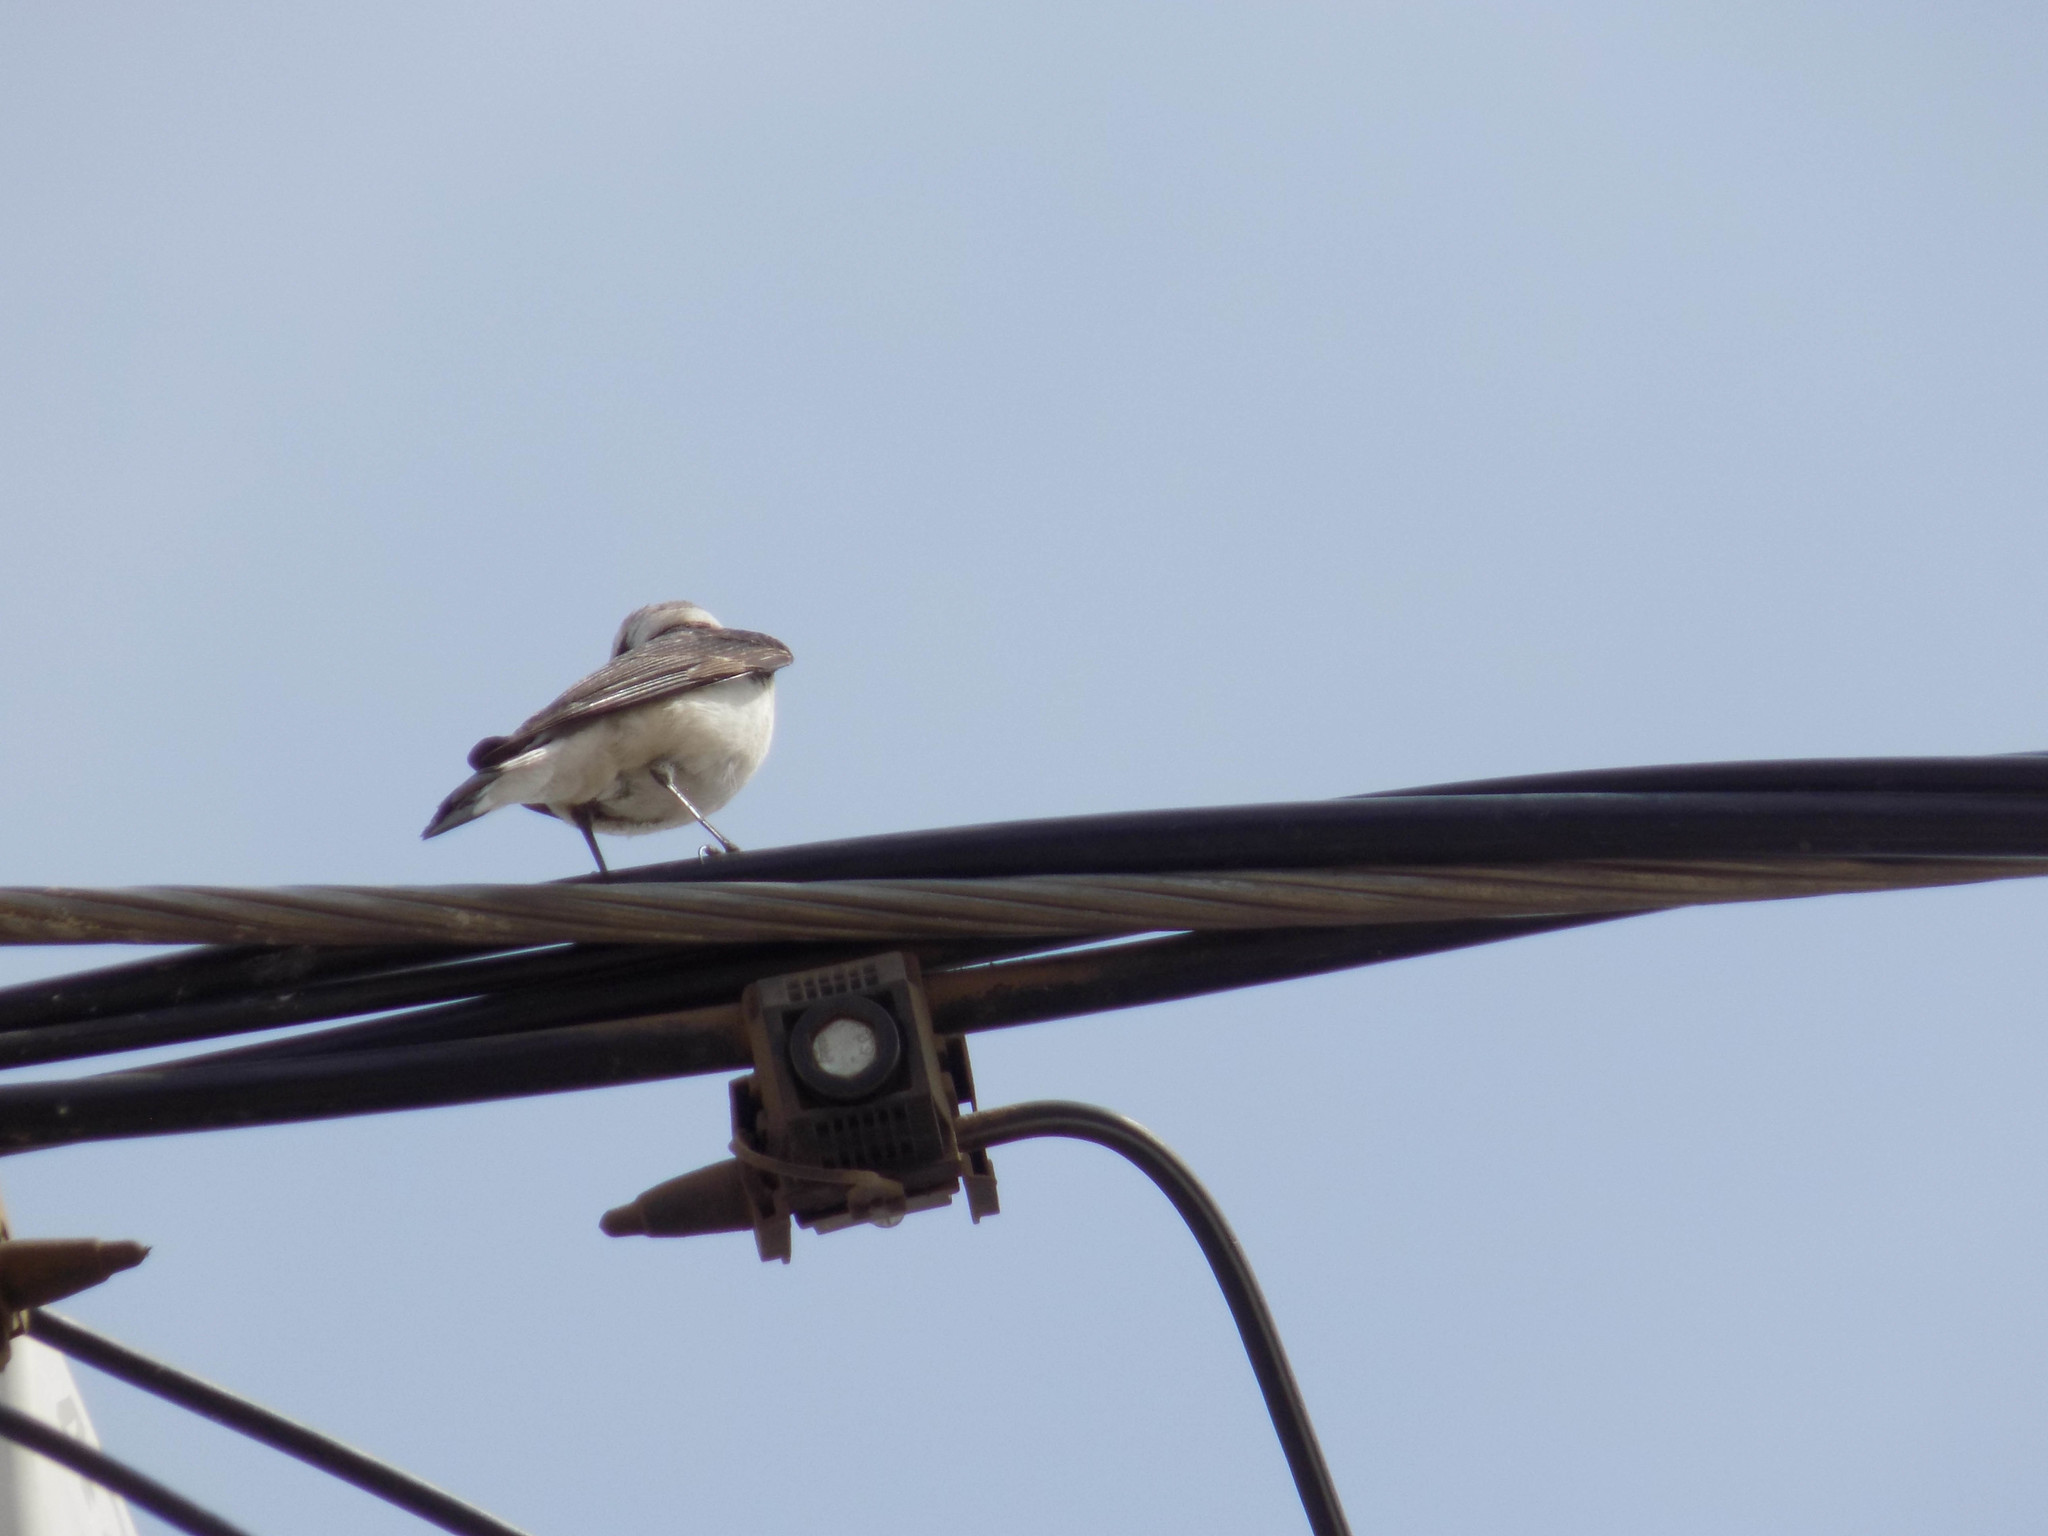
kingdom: Animalia
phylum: Chordata
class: Aves
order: Passeriformes
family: Muscicapidae
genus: Oenanthe
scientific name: Oenanthe pleschanka
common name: Pied wheatear
